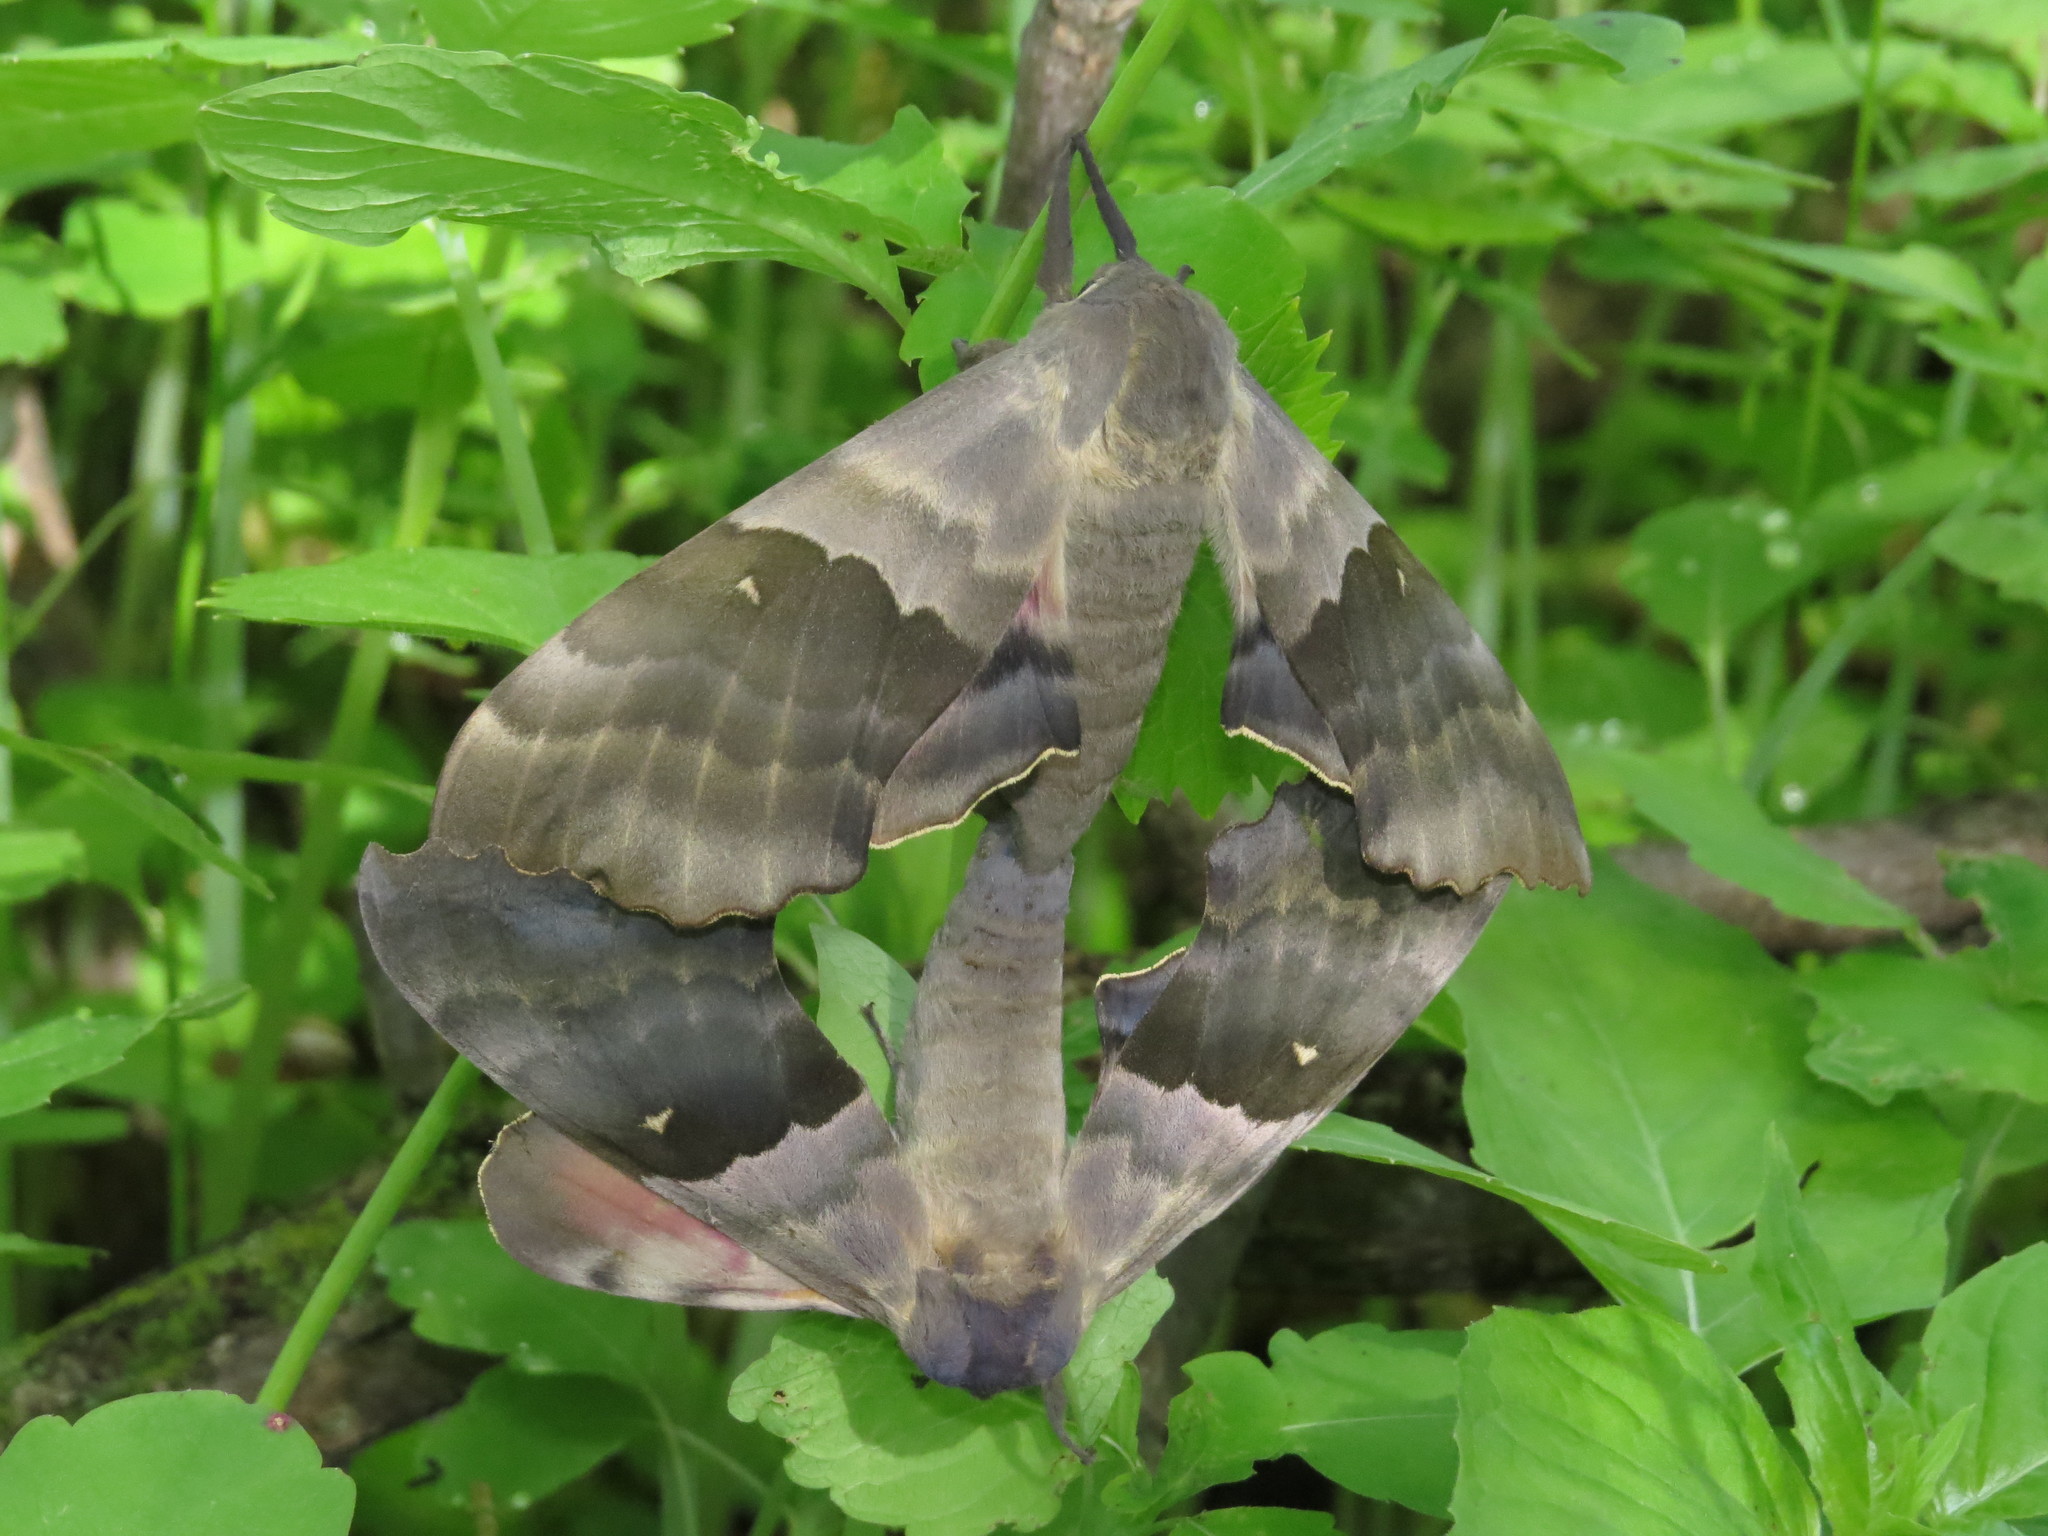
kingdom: Animalia
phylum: Arthropoda
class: Insecta
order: Lepidoptera
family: Sphingidae
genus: Pachysphinx
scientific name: Pachysphinx modesta
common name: Big poplar sphinx
